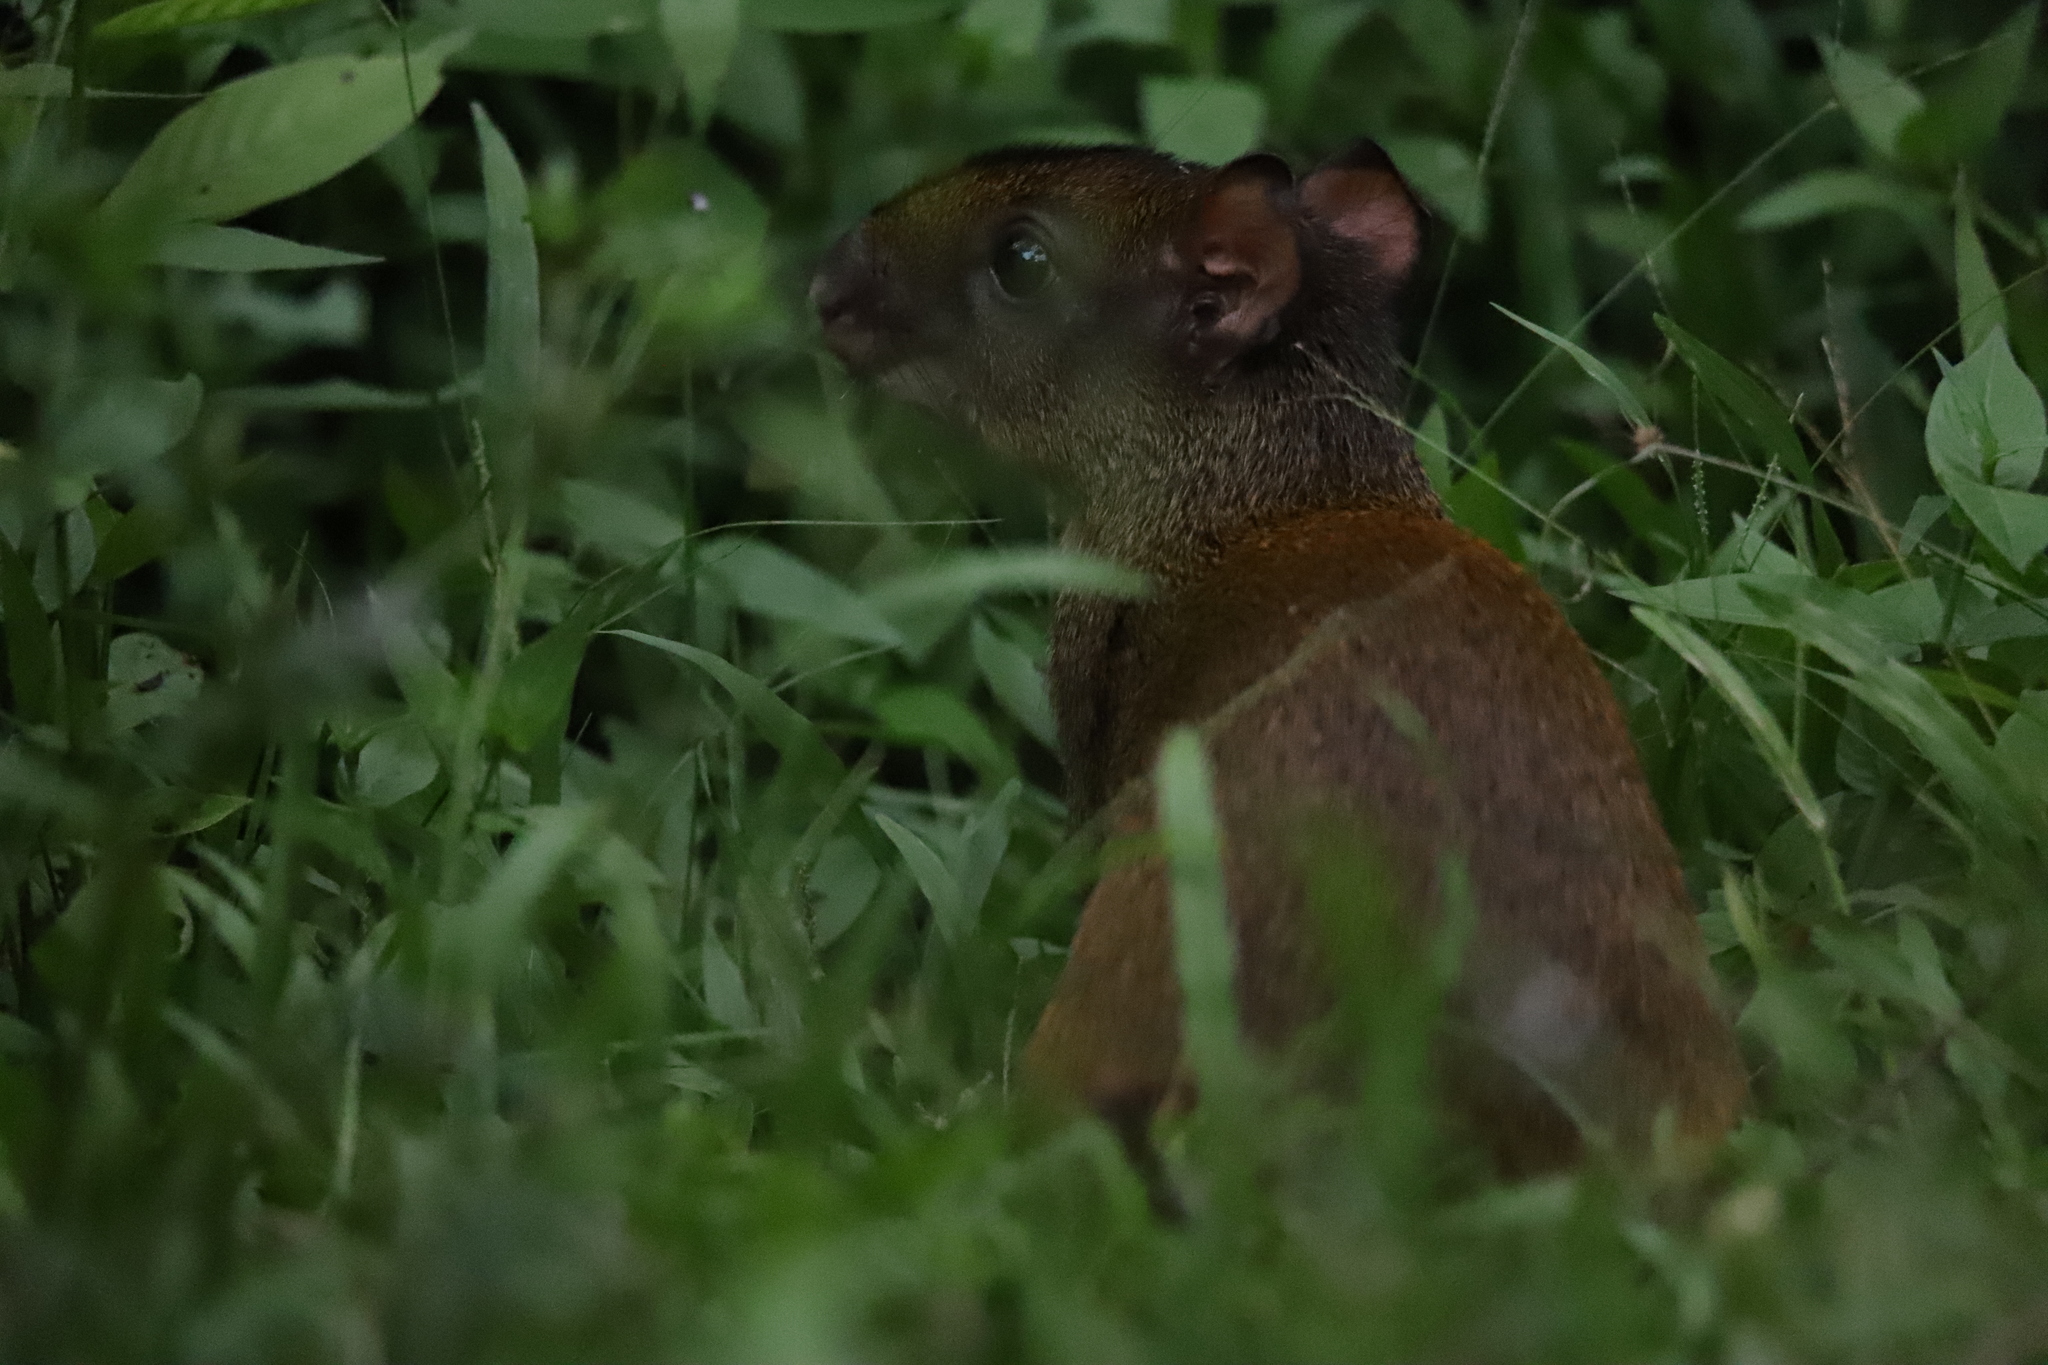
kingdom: Animalia
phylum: Chordata
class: Mammalia
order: Rodentia
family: Dasyproctidae
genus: Dasyprocta
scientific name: Dasyprocta punctata
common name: Central american agouti
